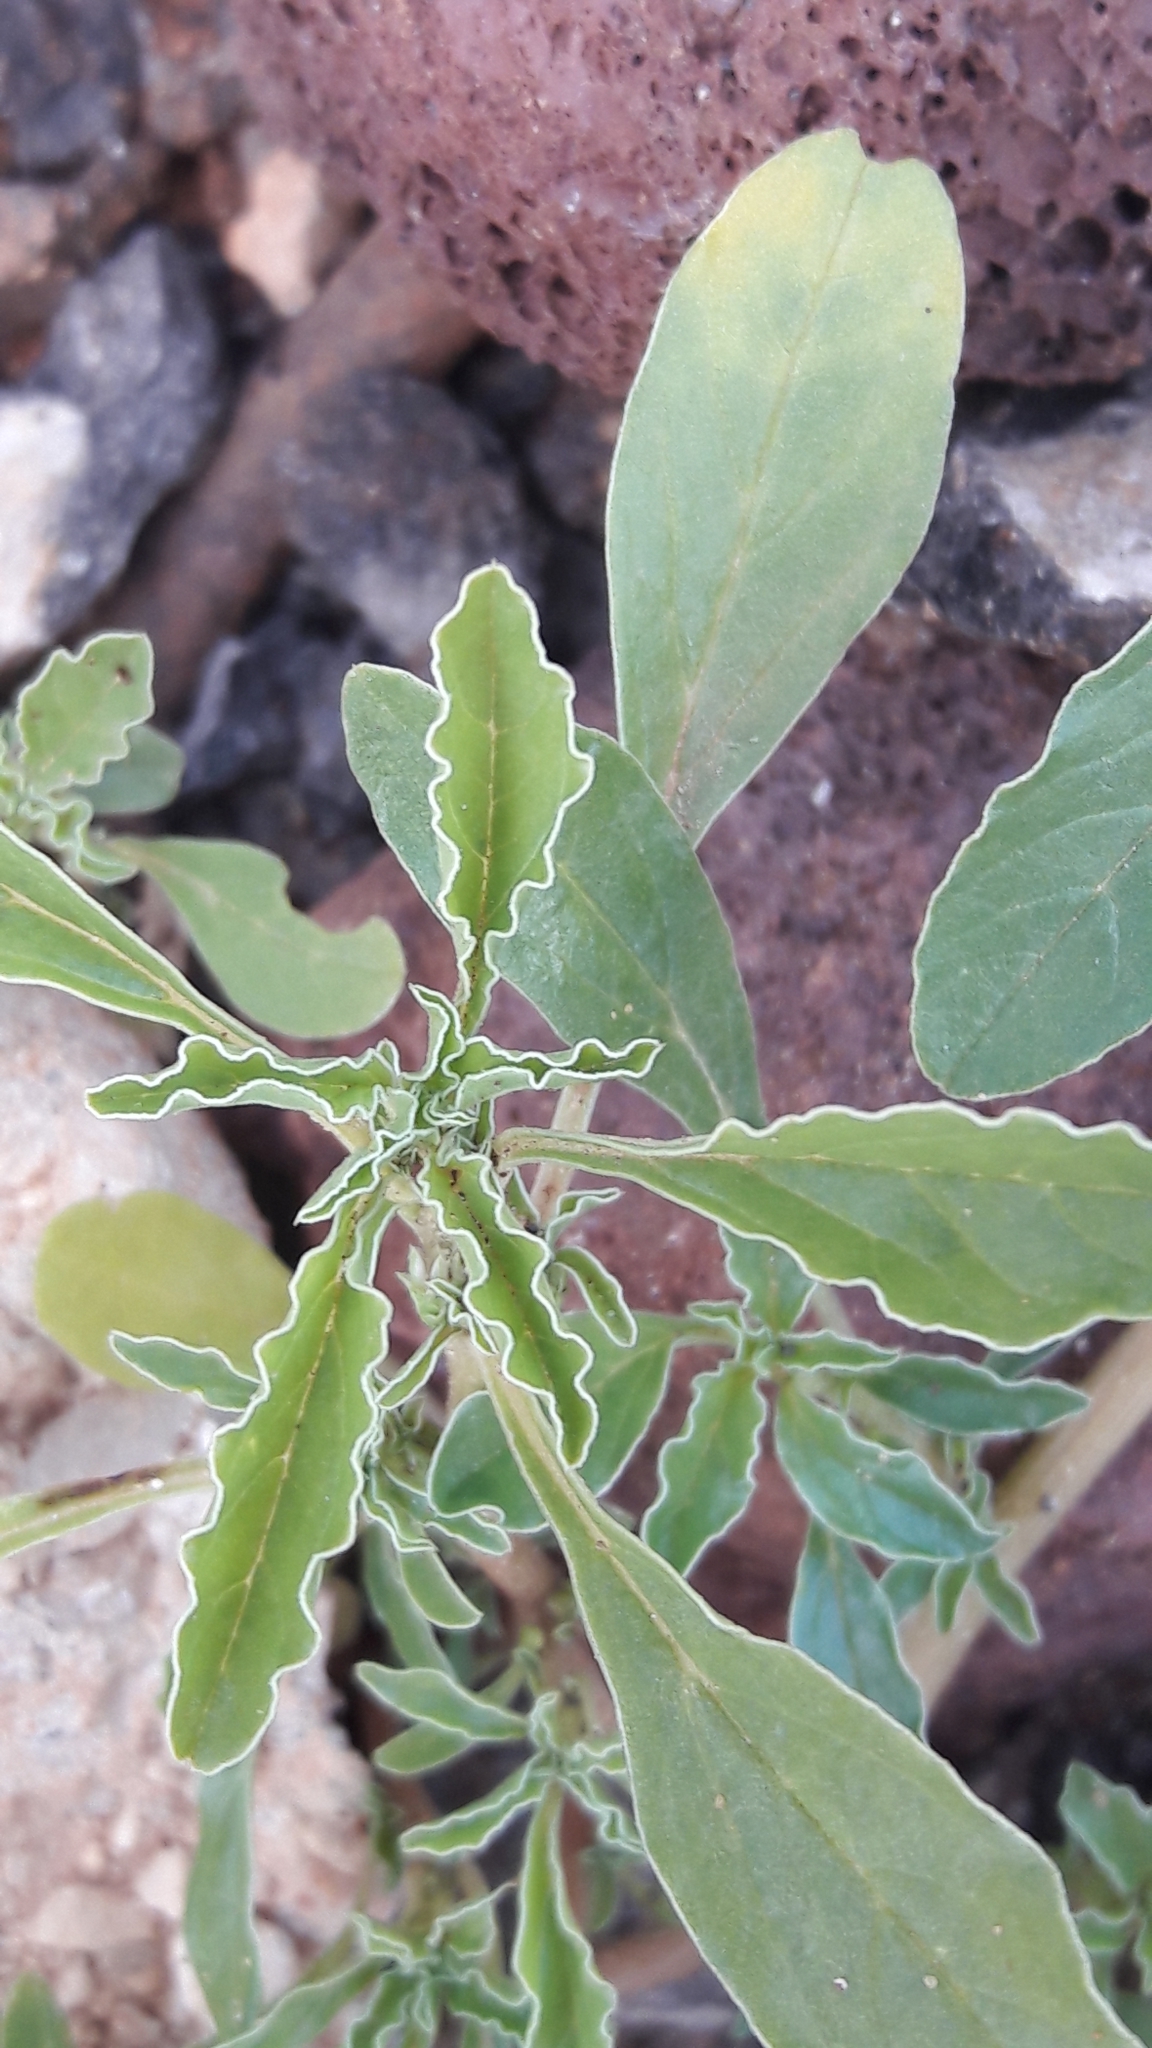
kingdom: Plantae
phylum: Tracheophyta
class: Magnoliopsida
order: Solanales
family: Solanaceae
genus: Solanum
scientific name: Solanum elaeagnifolium
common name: Silverleaf nightshade
